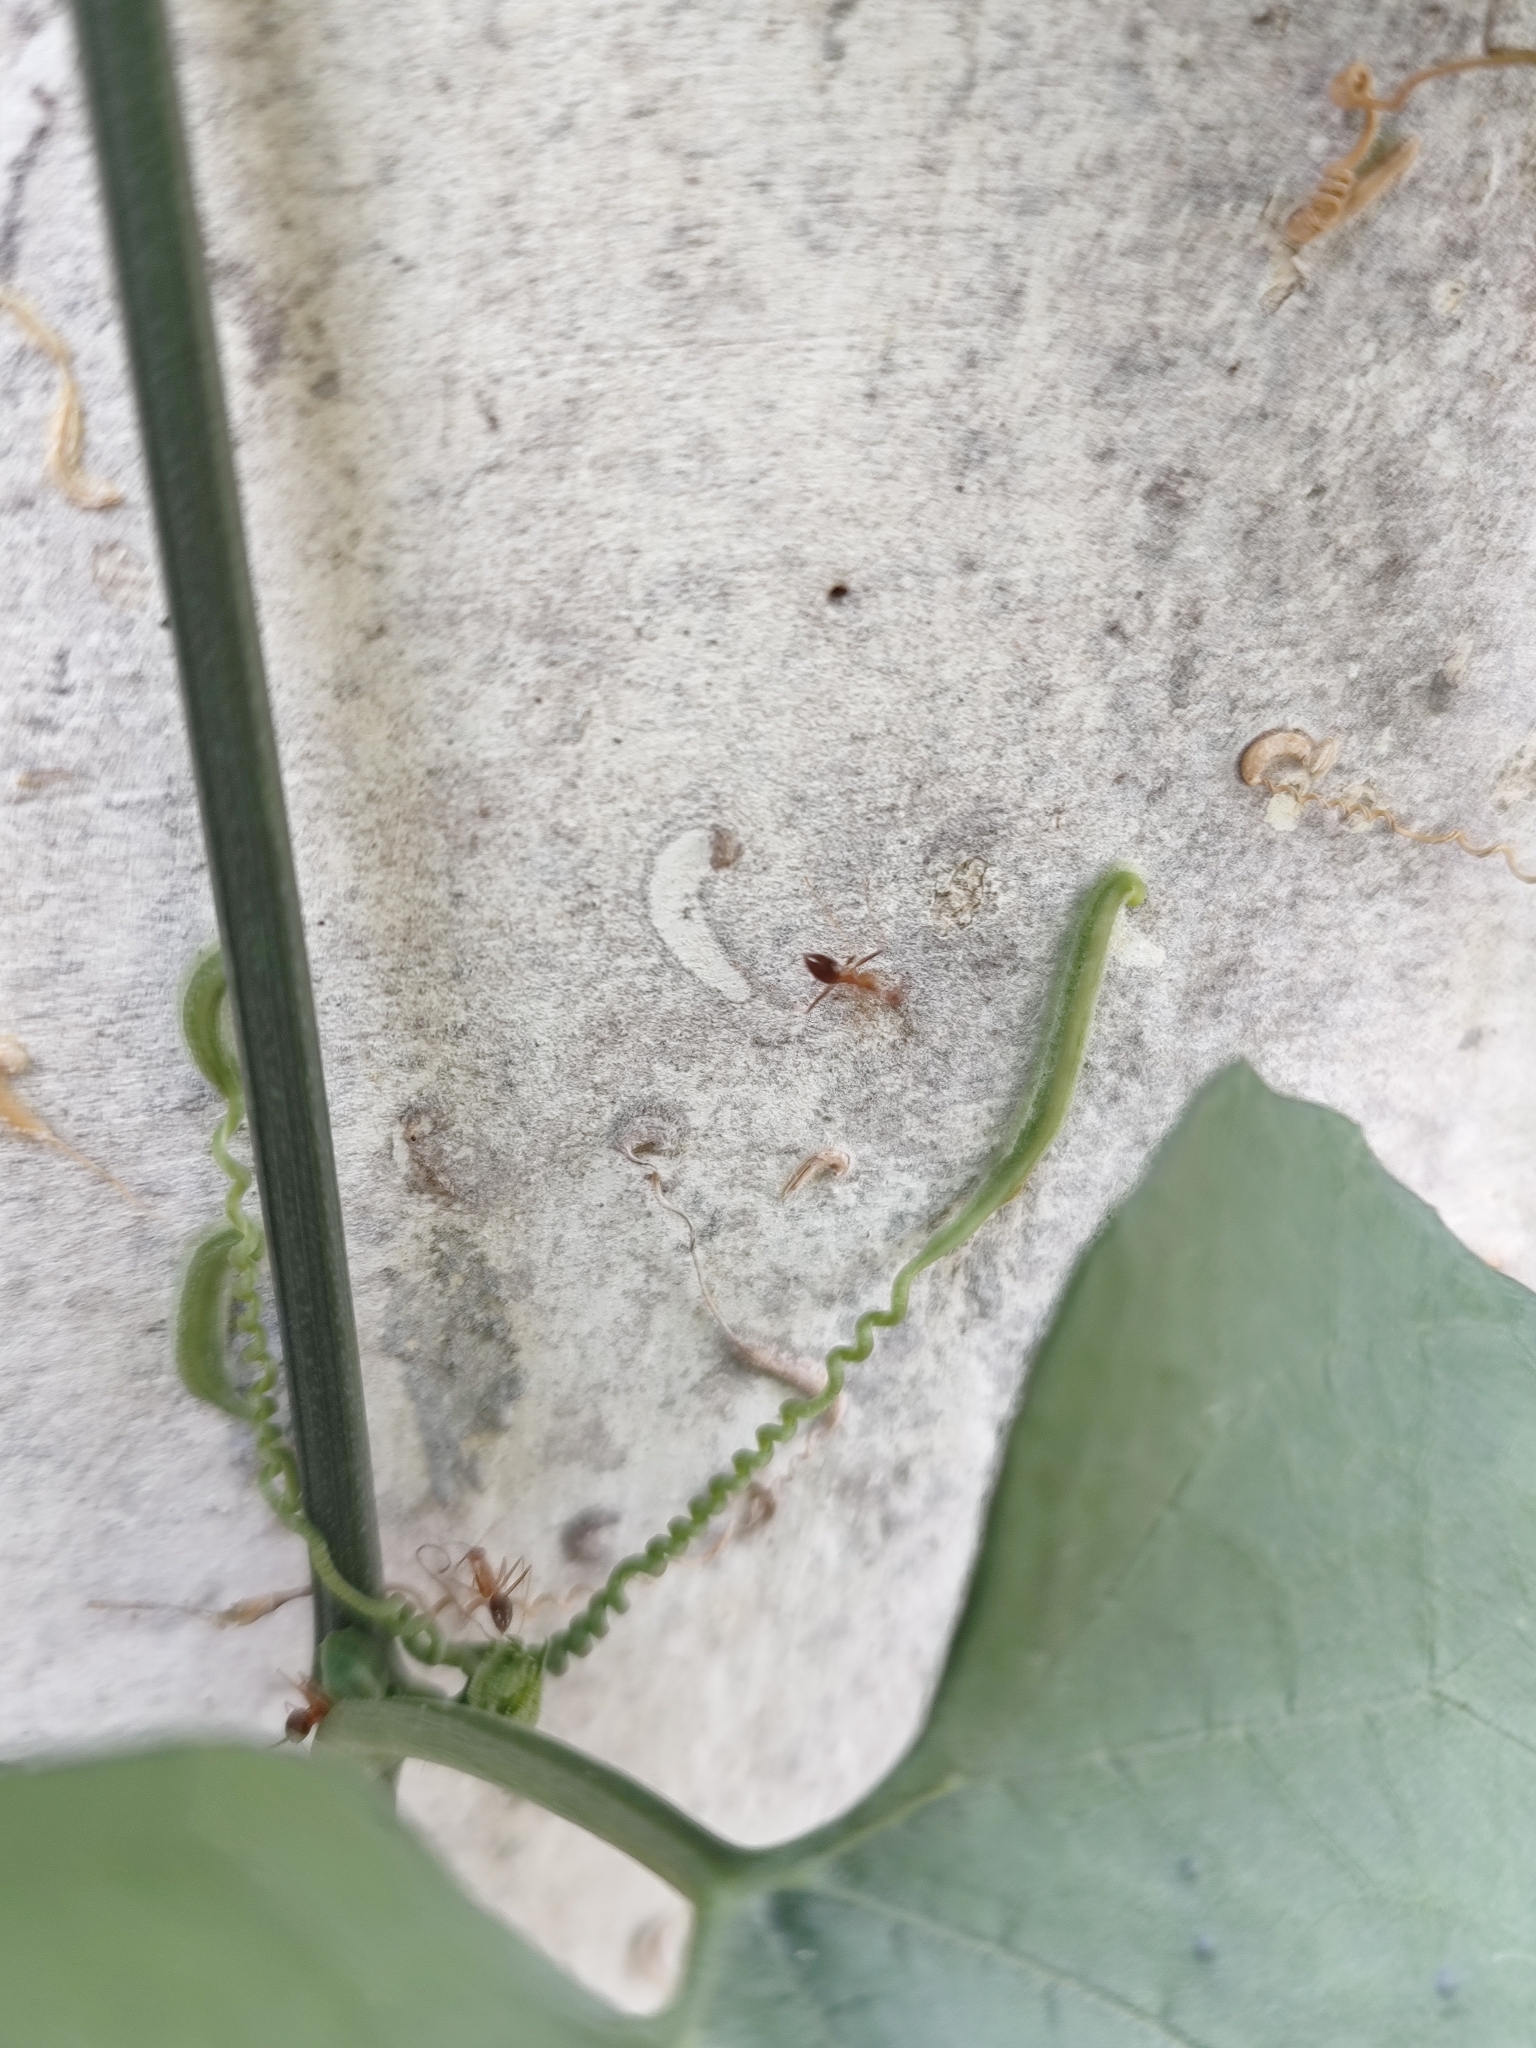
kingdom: Animalia
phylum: Arthropoda
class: Insecta
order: Hymenoptera
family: Formicidae
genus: Anoplolepis
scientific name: Anoplolepis gracilipes
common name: Ant
